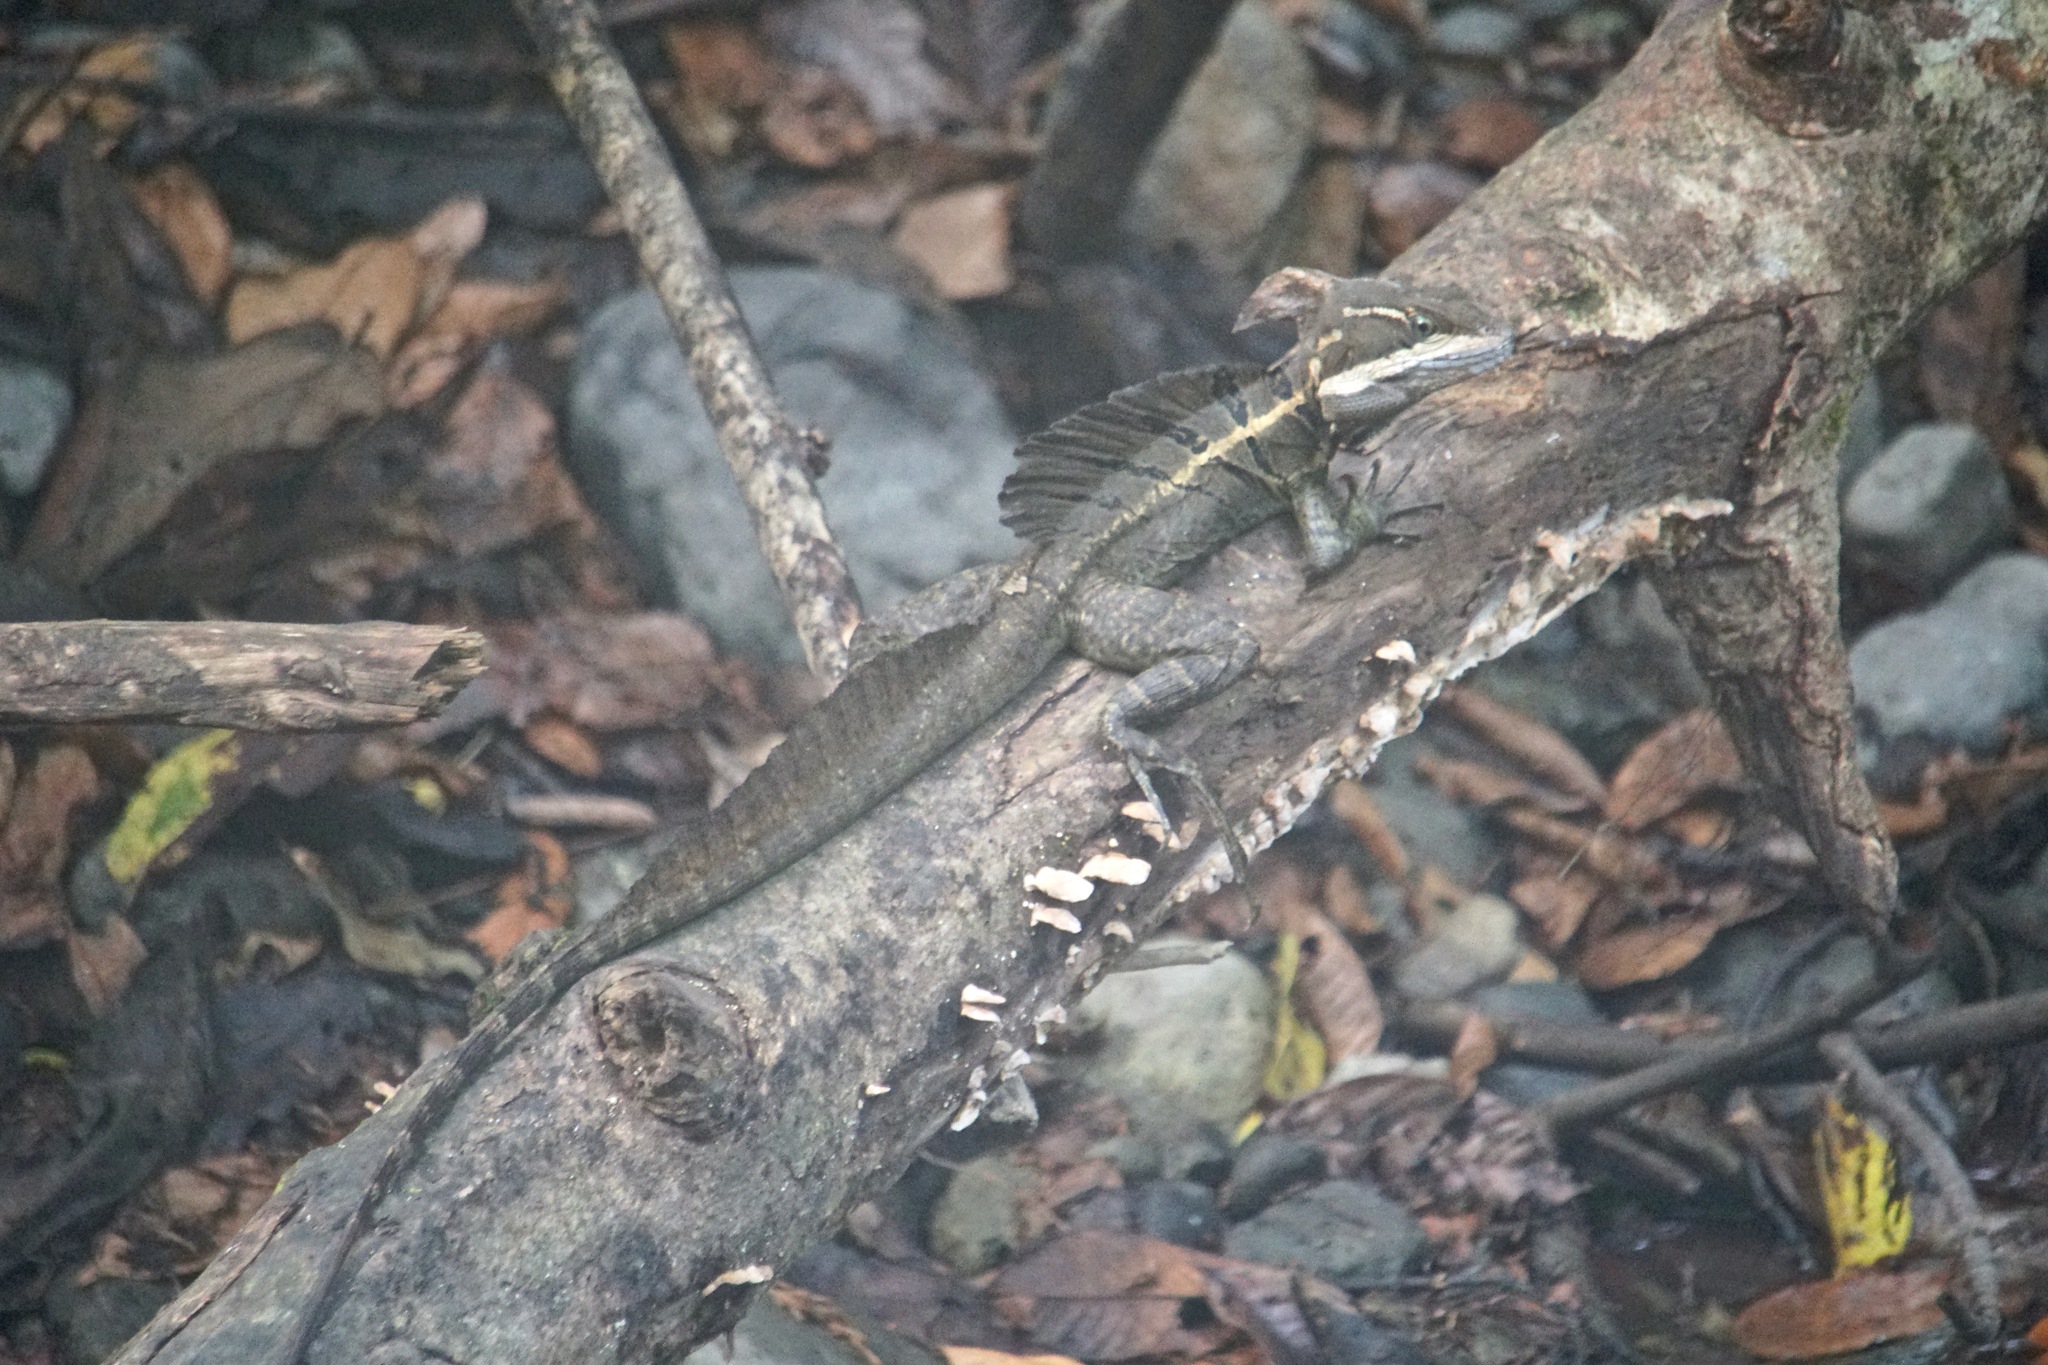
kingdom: Animalia
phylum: Chordata
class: Squamata
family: Corytophanidae
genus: Basiliscus
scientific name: Basiliscus basiliscus
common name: Common basilisk
